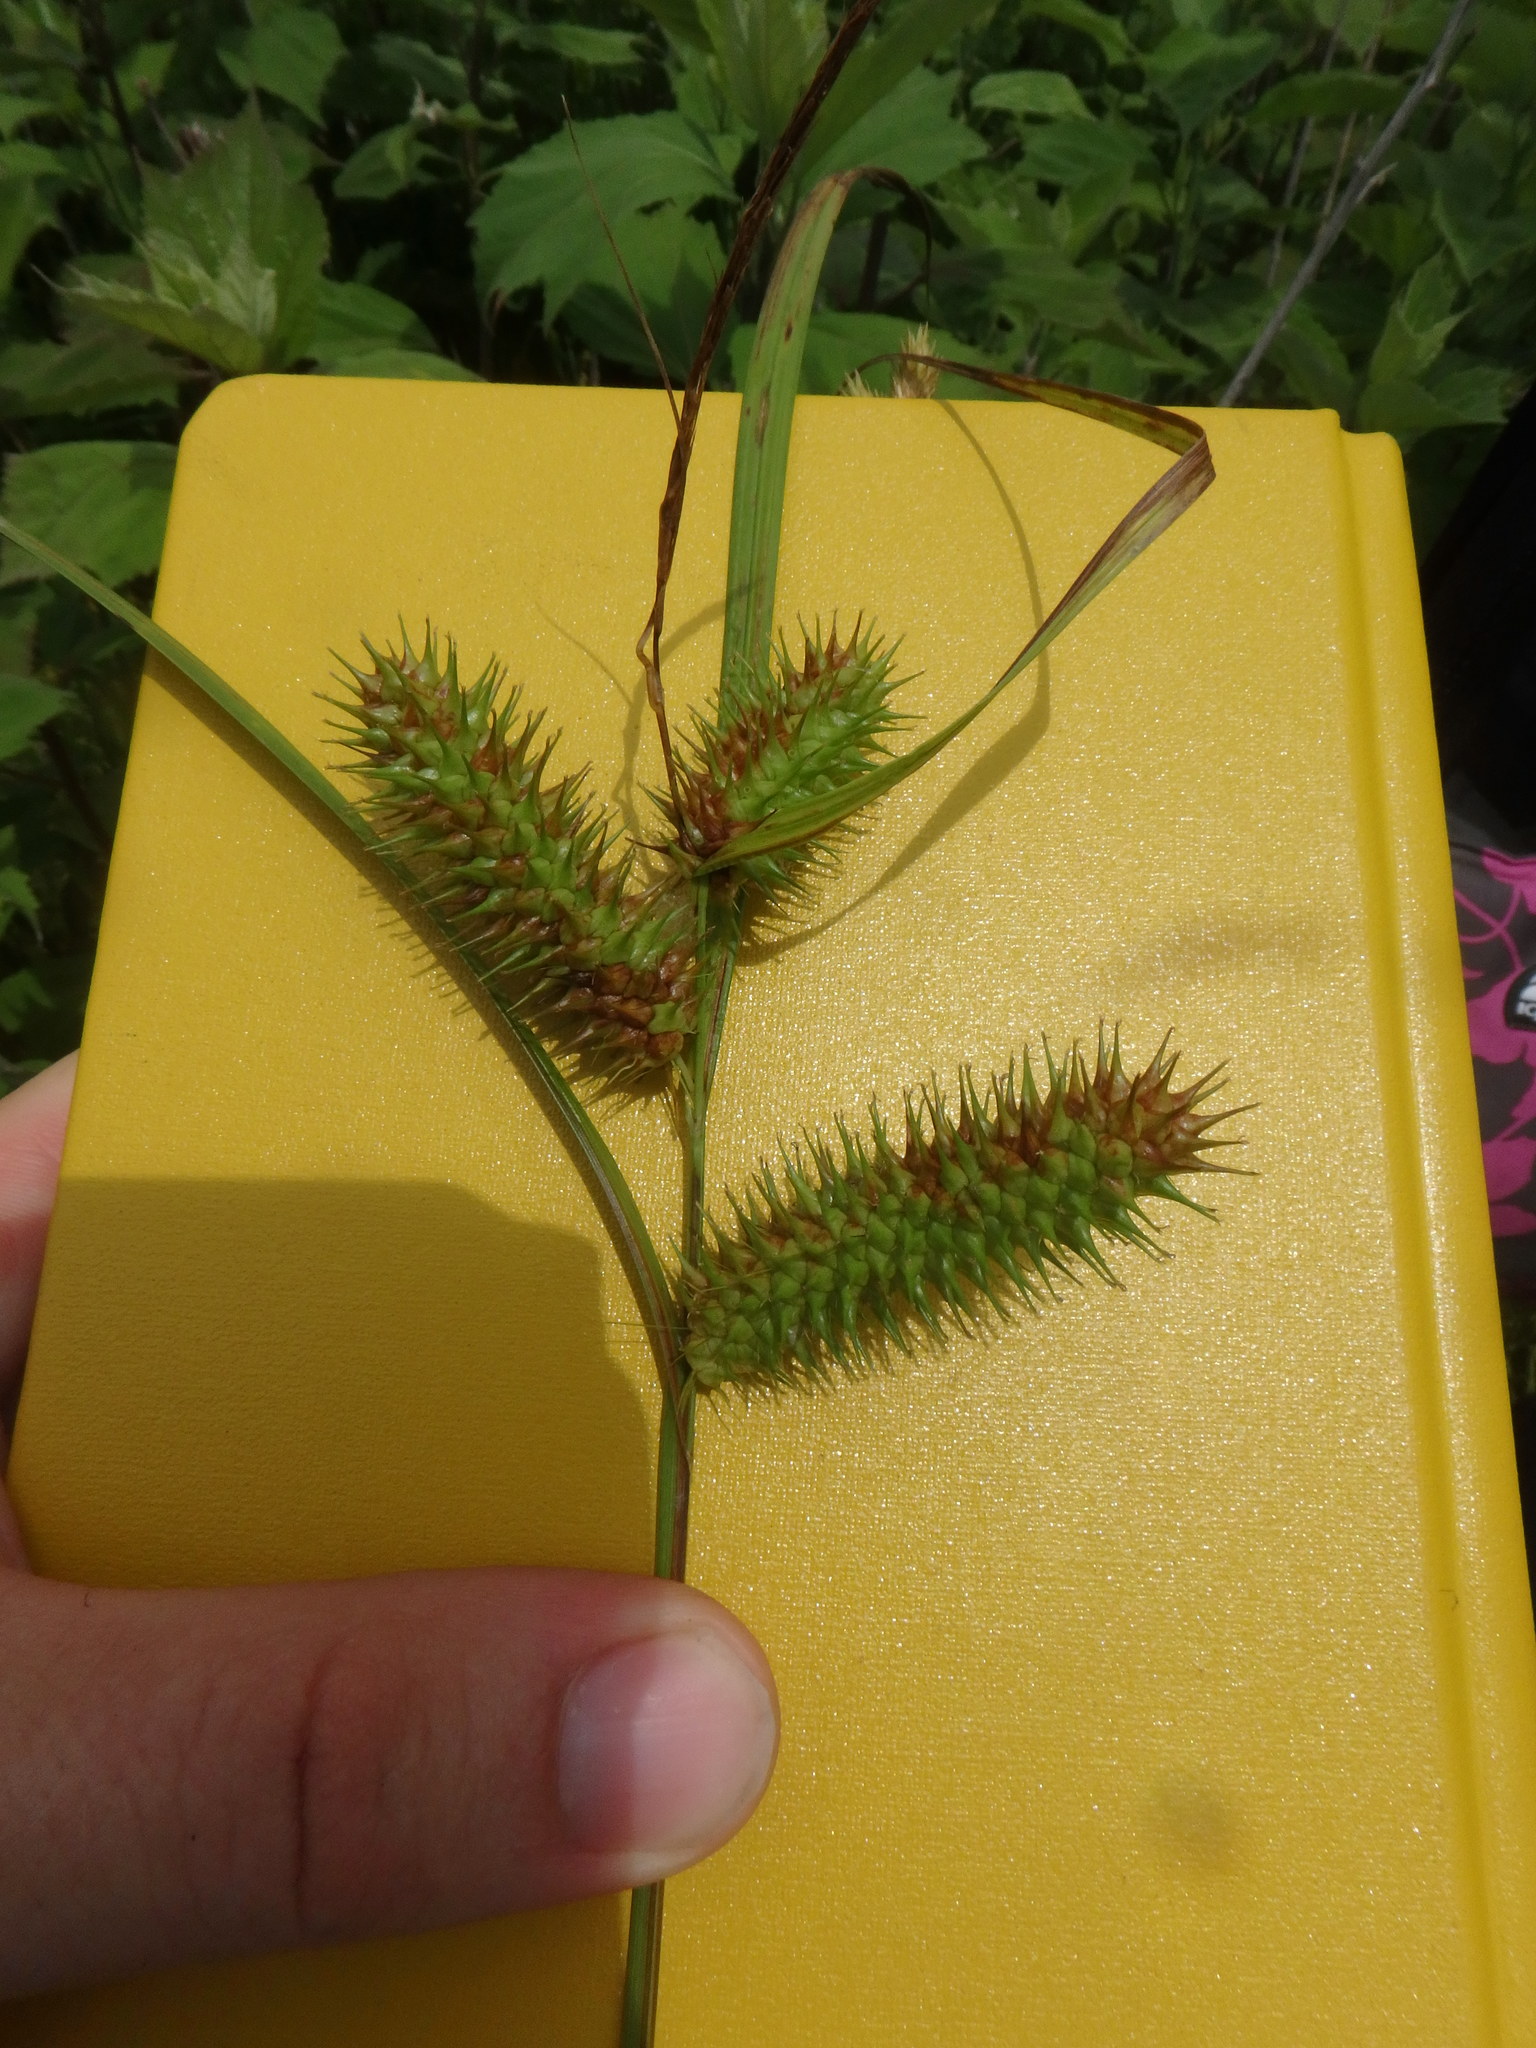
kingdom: Plantae
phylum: Tracheophyta
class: Liliopsida
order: Poales
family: Cyperaceae
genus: Carex
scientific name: Carex lurida
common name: Sallow sedge
